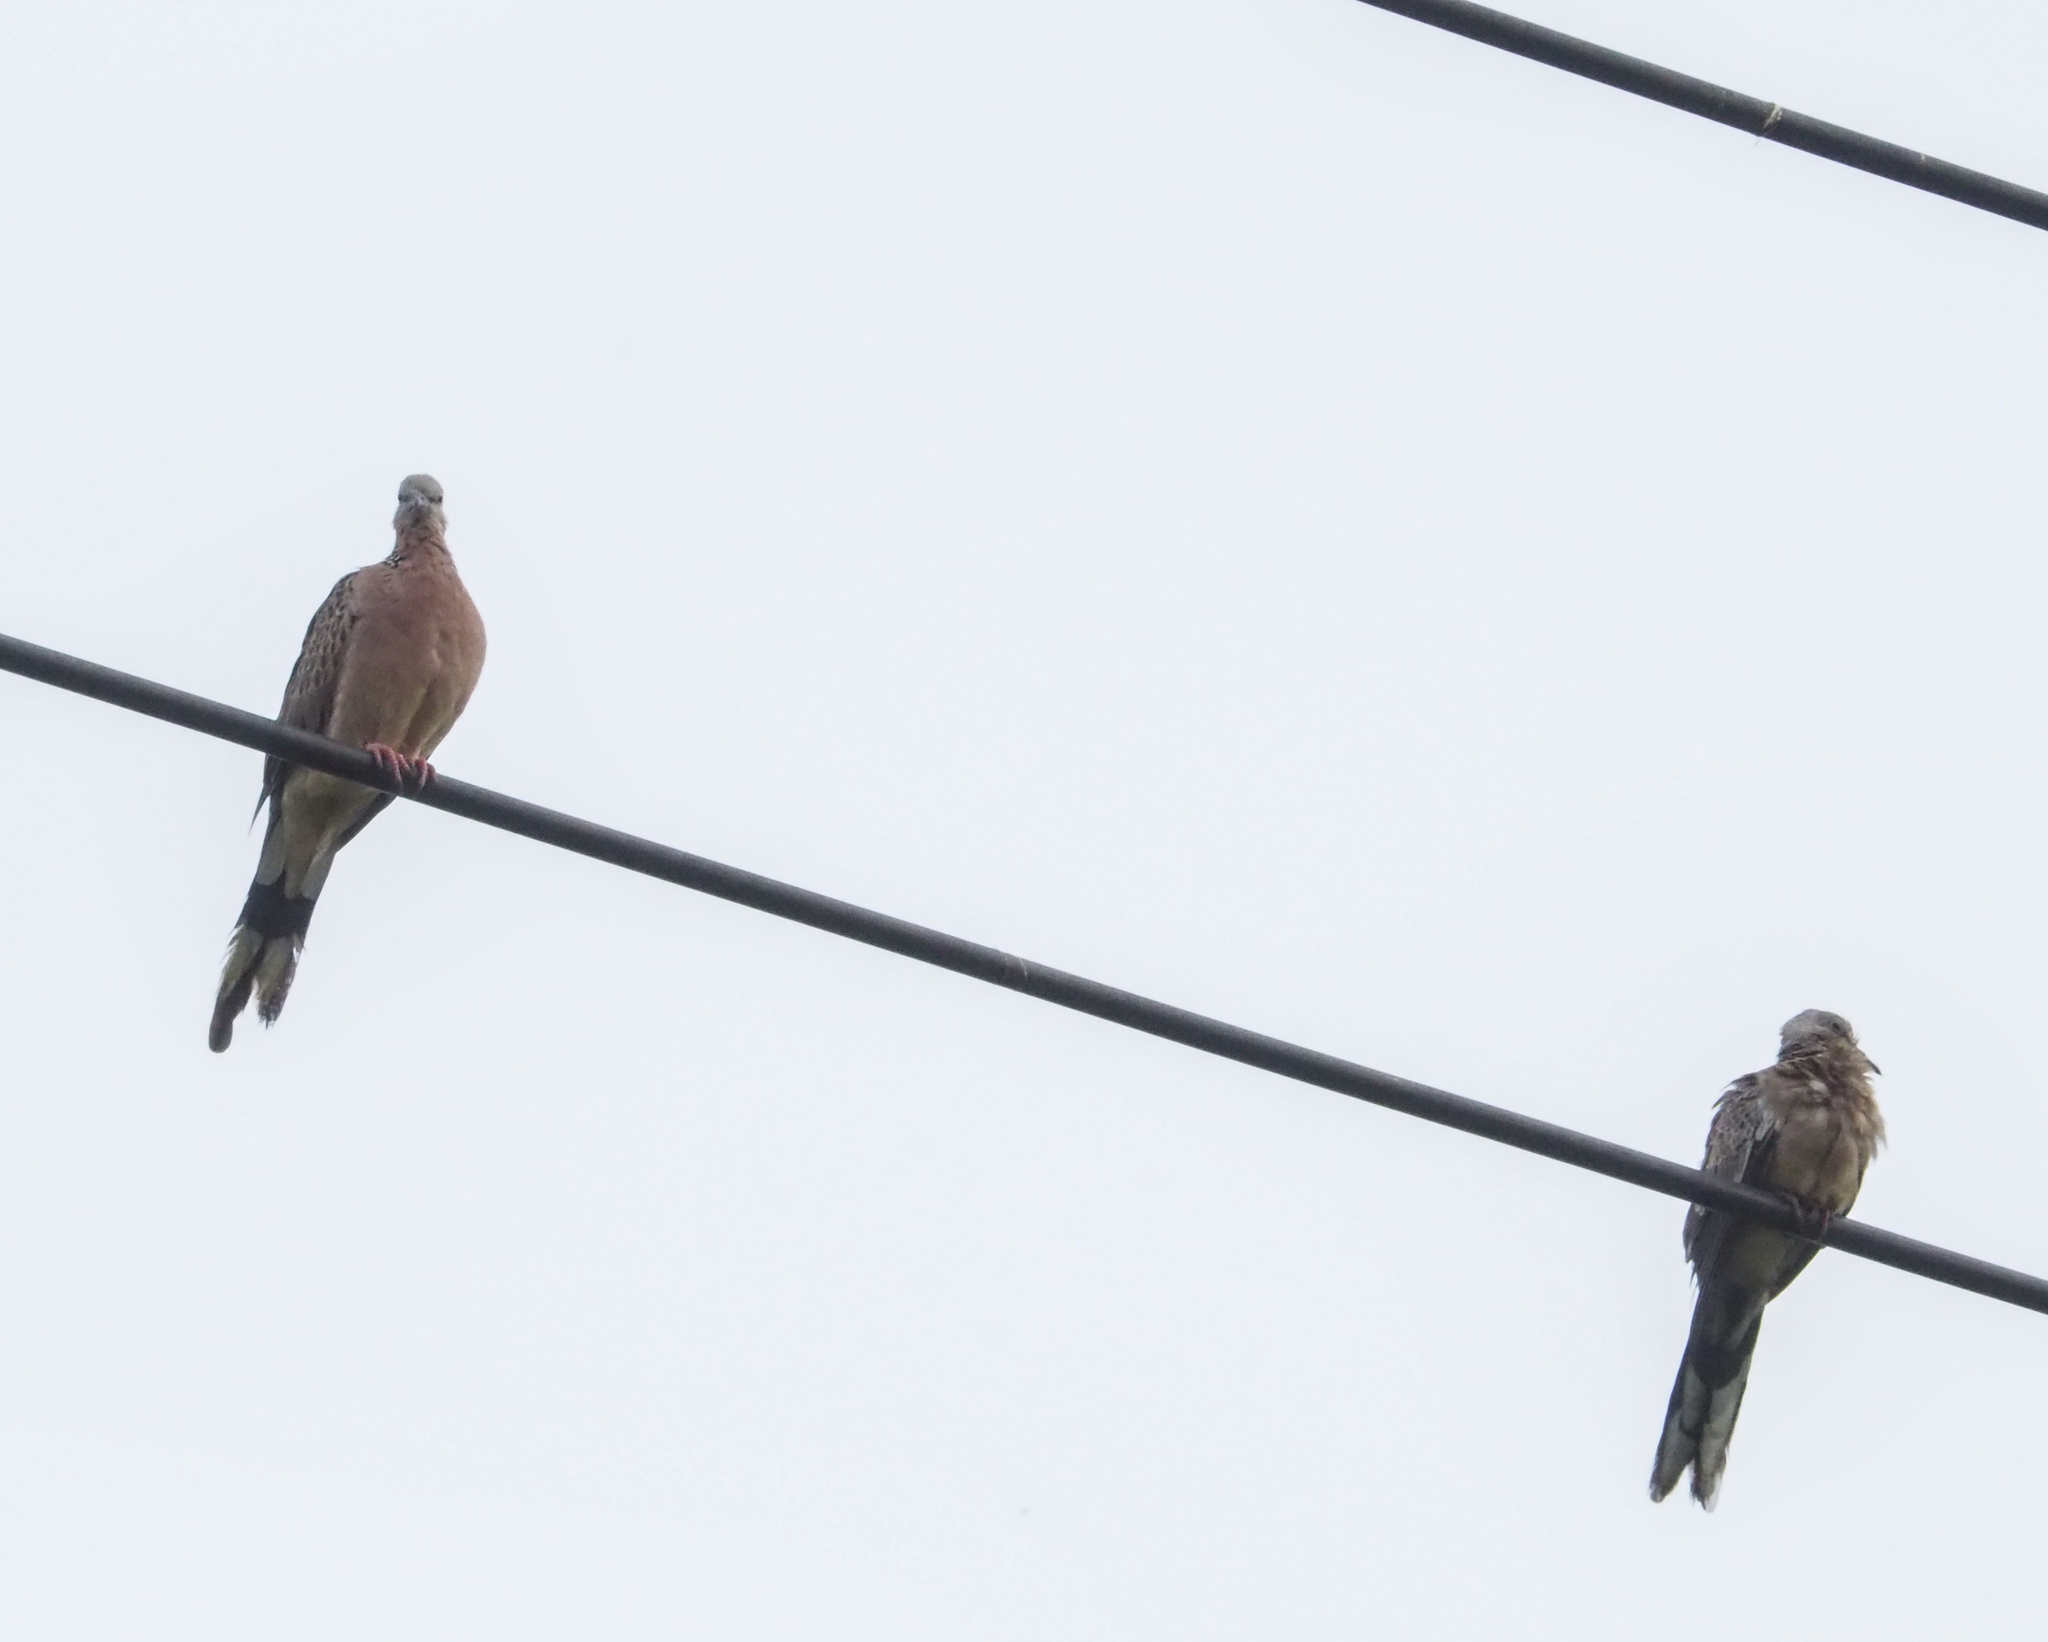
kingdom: Animalia
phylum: Chordata
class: Aves
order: Columbiformes
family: Columbidae
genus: Spilopelia
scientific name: Spilopelia chinensis
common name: Spotted dove
